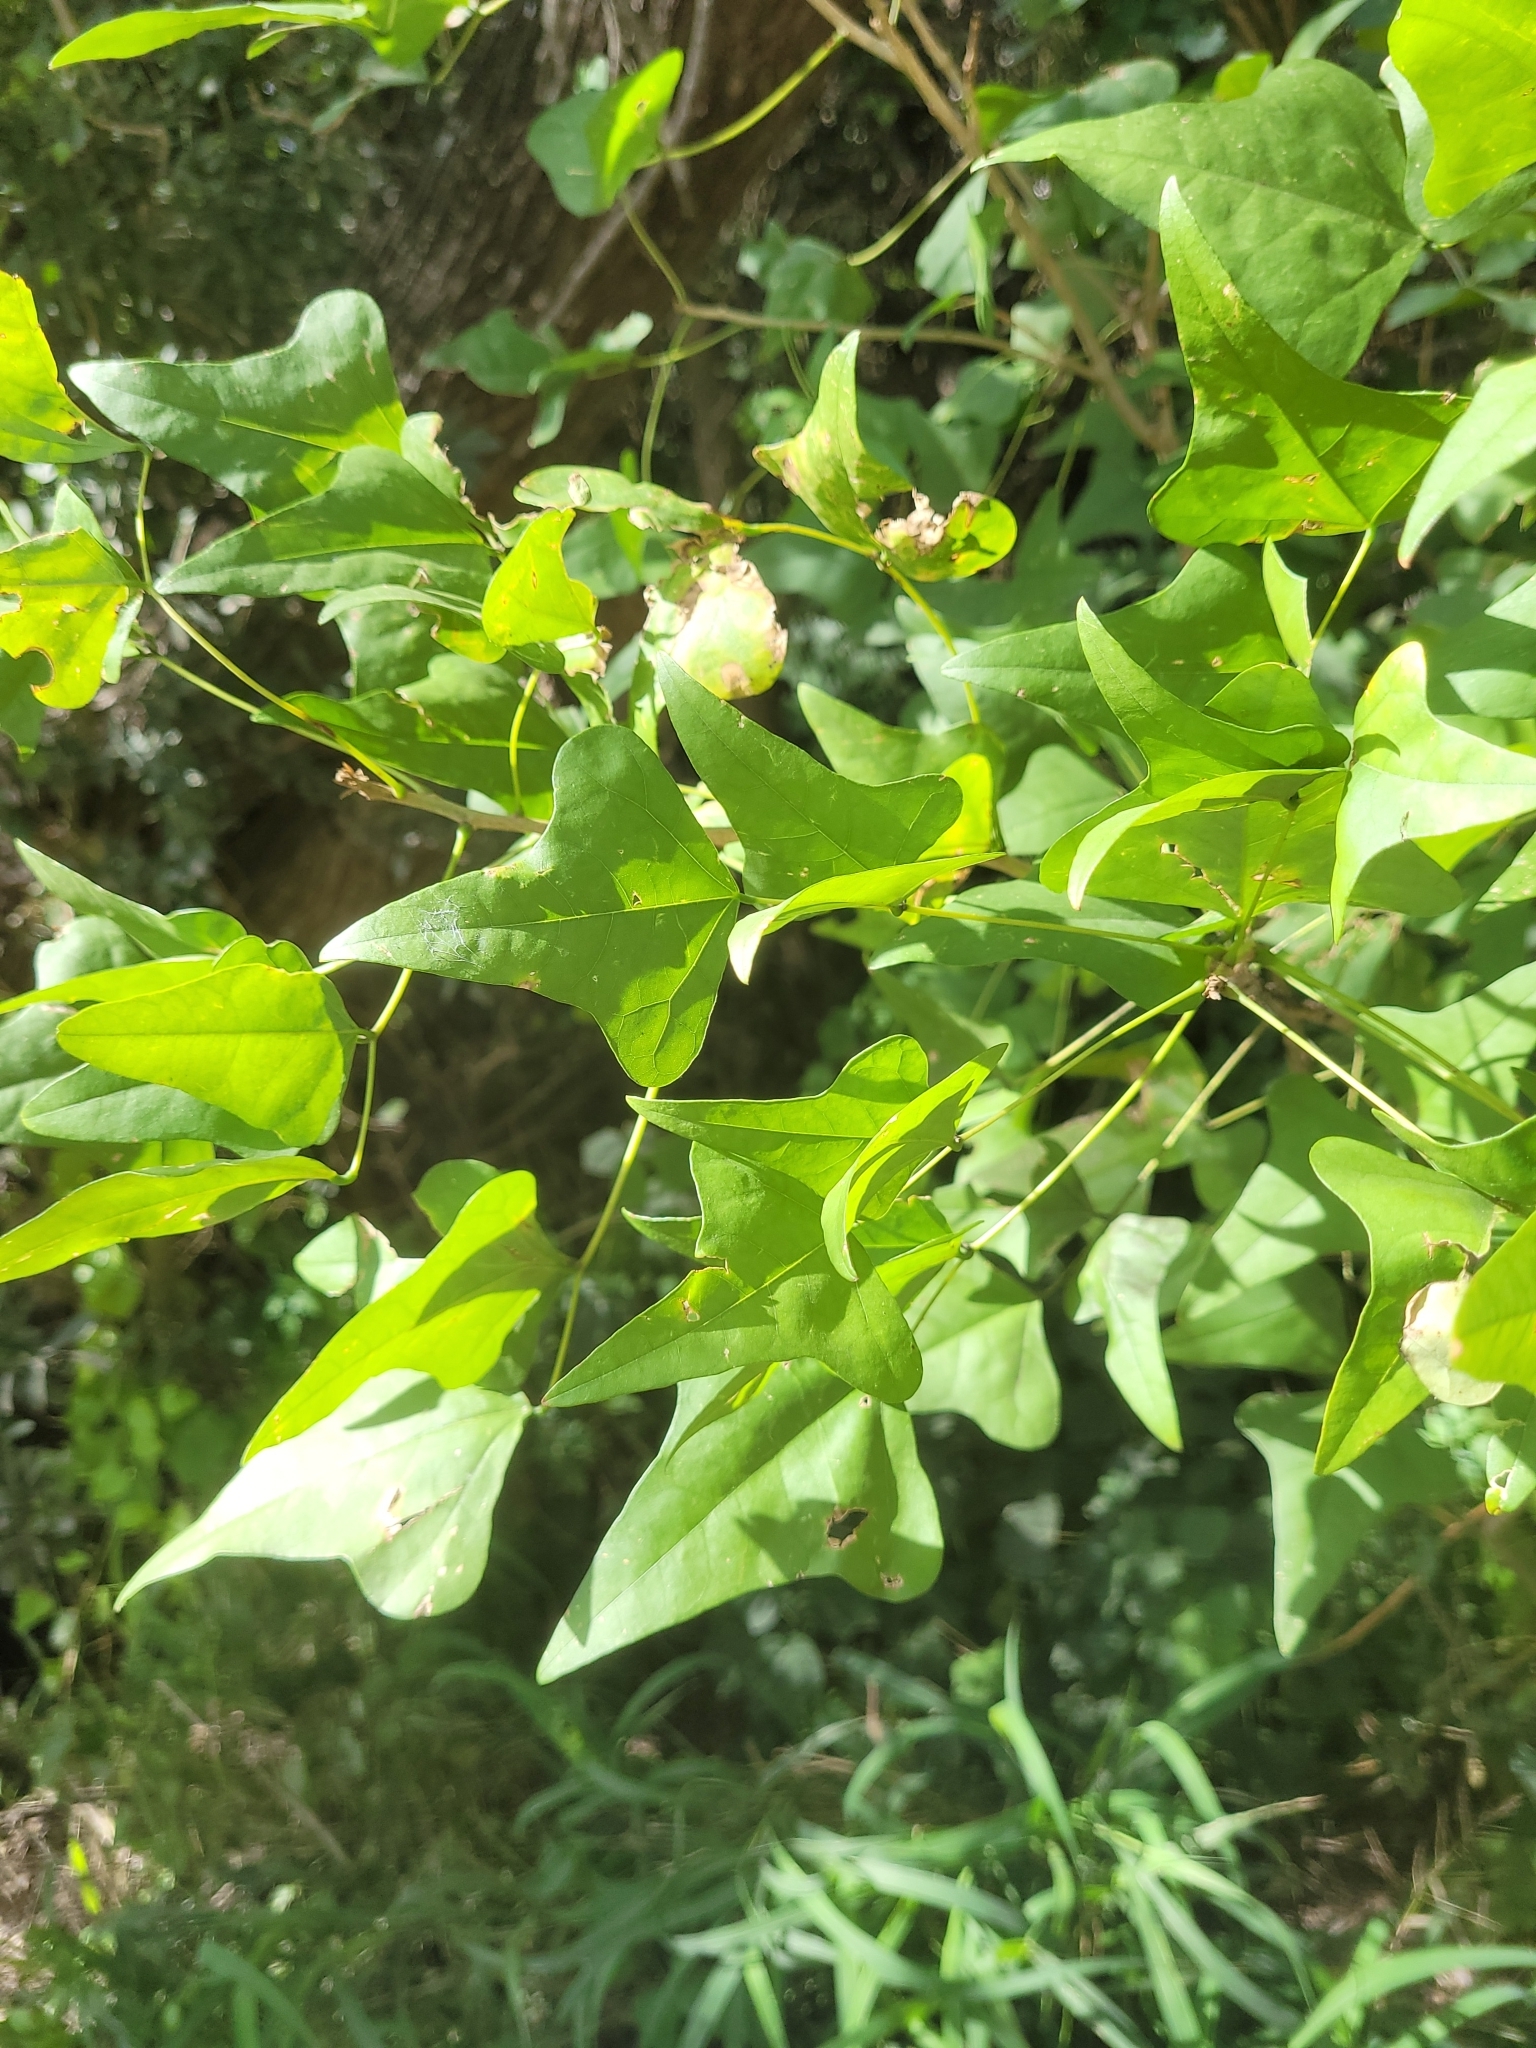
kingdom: Plantae
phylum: Tracheophyta
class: Magnoliopsida
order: Fabales
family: Fabaceae
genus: Erythrina
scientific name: Erythrina herbacea
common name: Coral-bean
